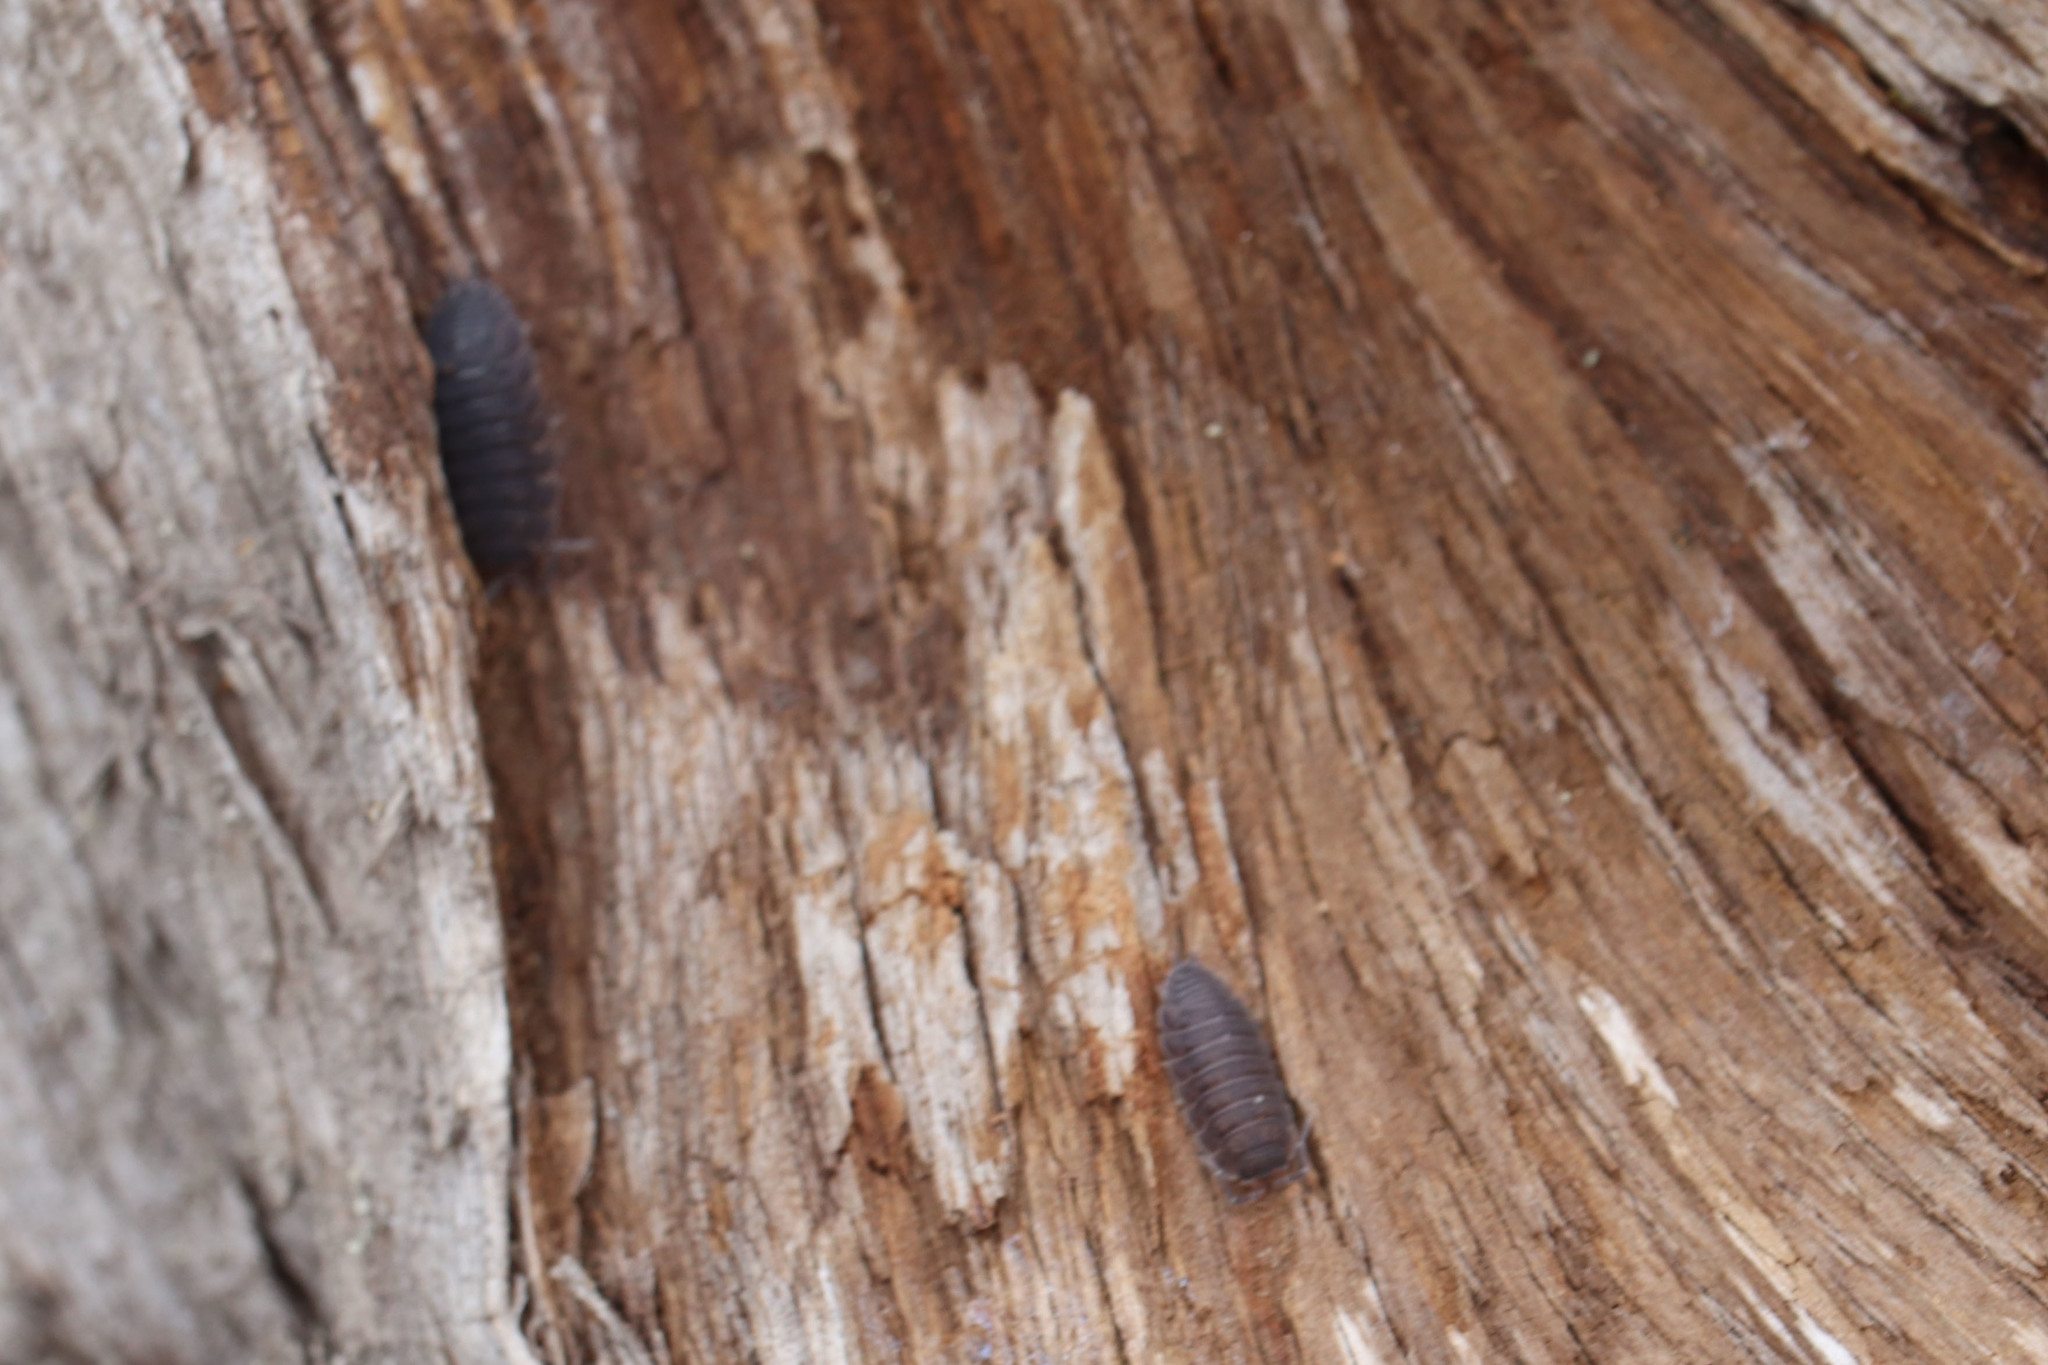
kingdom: Animalia
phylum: Arthropoda
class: Malacostraca
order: Isopoda
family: Porcellionidae
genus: Porcellio
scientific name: Porcellio scaber
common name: Common rough woodlouse
